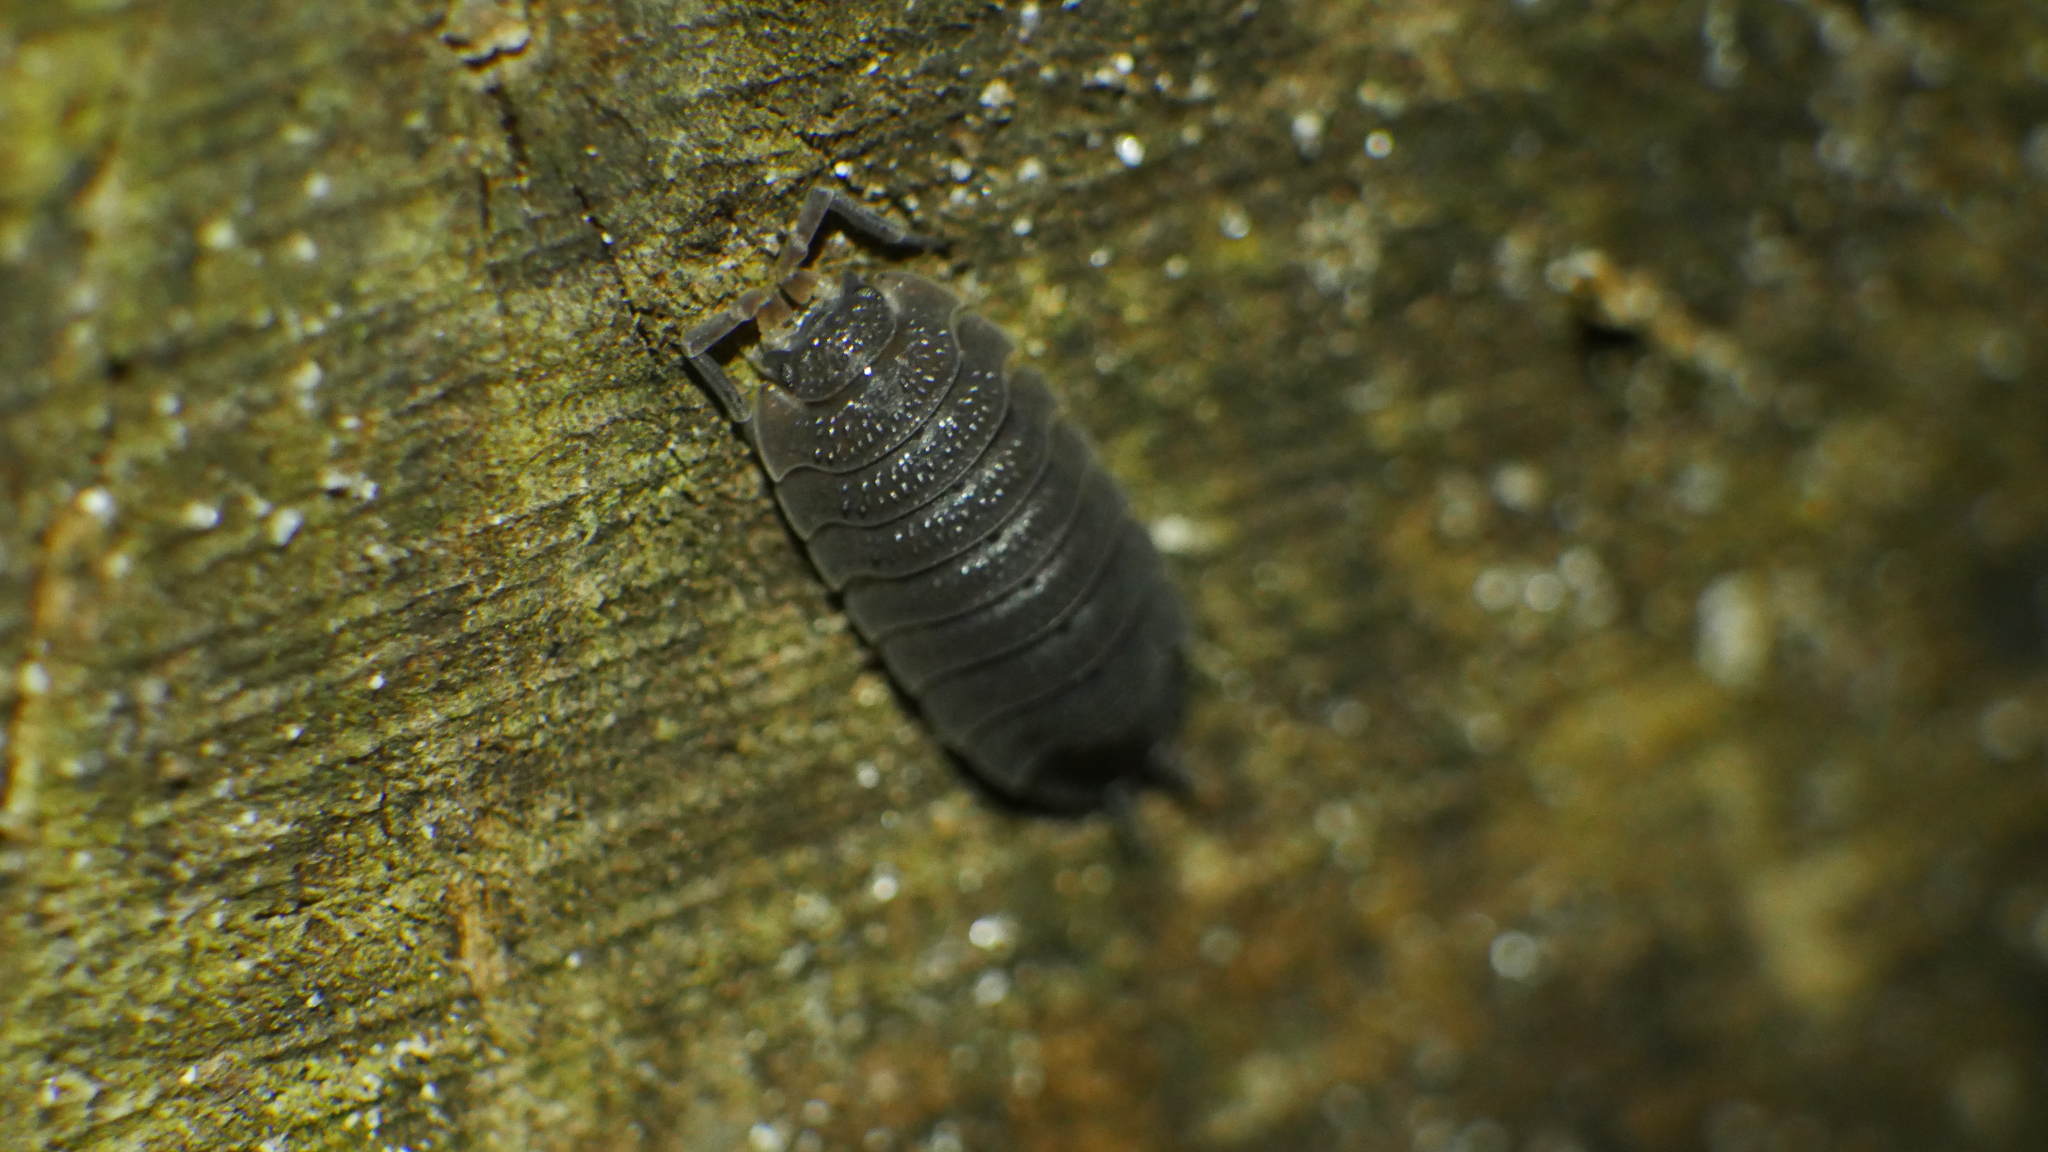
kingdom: Animalia
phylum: Arthropoda
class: Malacostraca
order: Isopoda
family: Porcellionidae
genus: Porcellio
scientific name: Porcellio scaber
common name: Common rough woodlouse
